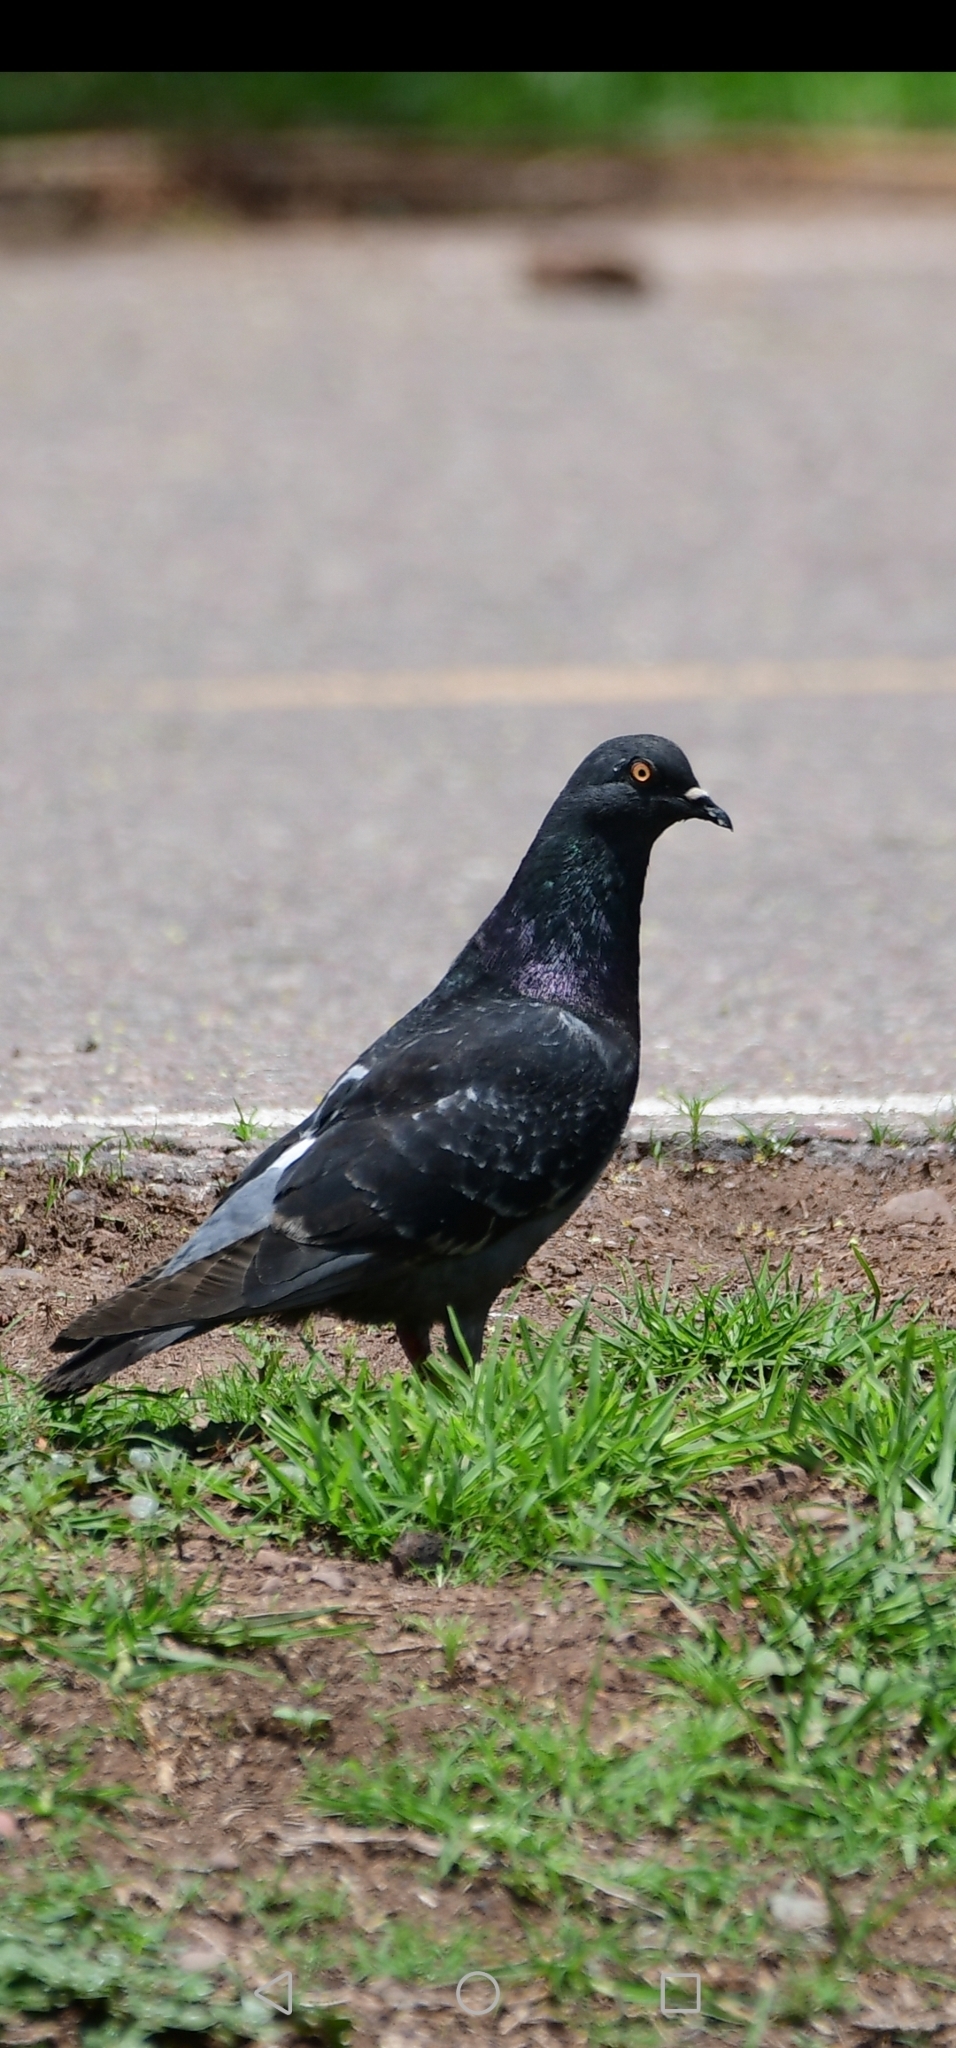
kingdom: Animalia
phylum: Chordata
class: Aves
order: Columbiformes
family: Columbidae
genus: Columba
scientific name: Columba livia
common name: Rock pigeon
